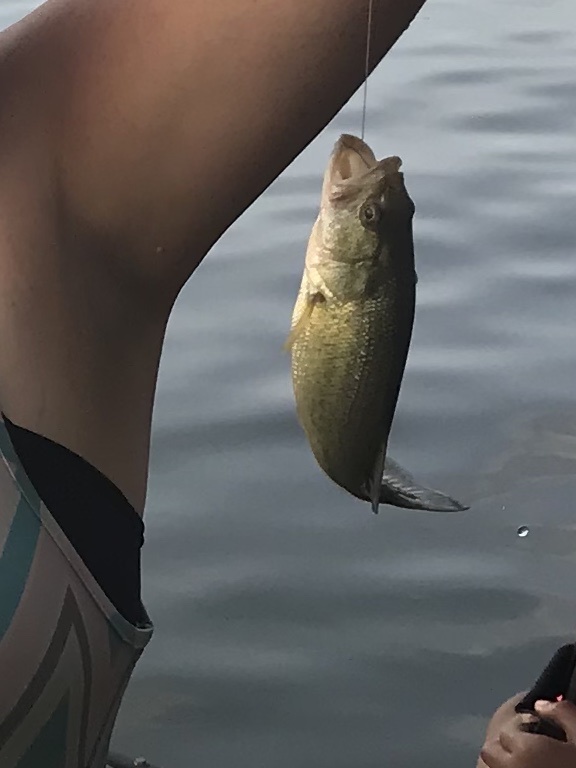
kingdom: Animalia
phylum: Chordata
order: Perciformes
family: Centrarchidae
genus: Micropterus
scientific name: Micropterus
